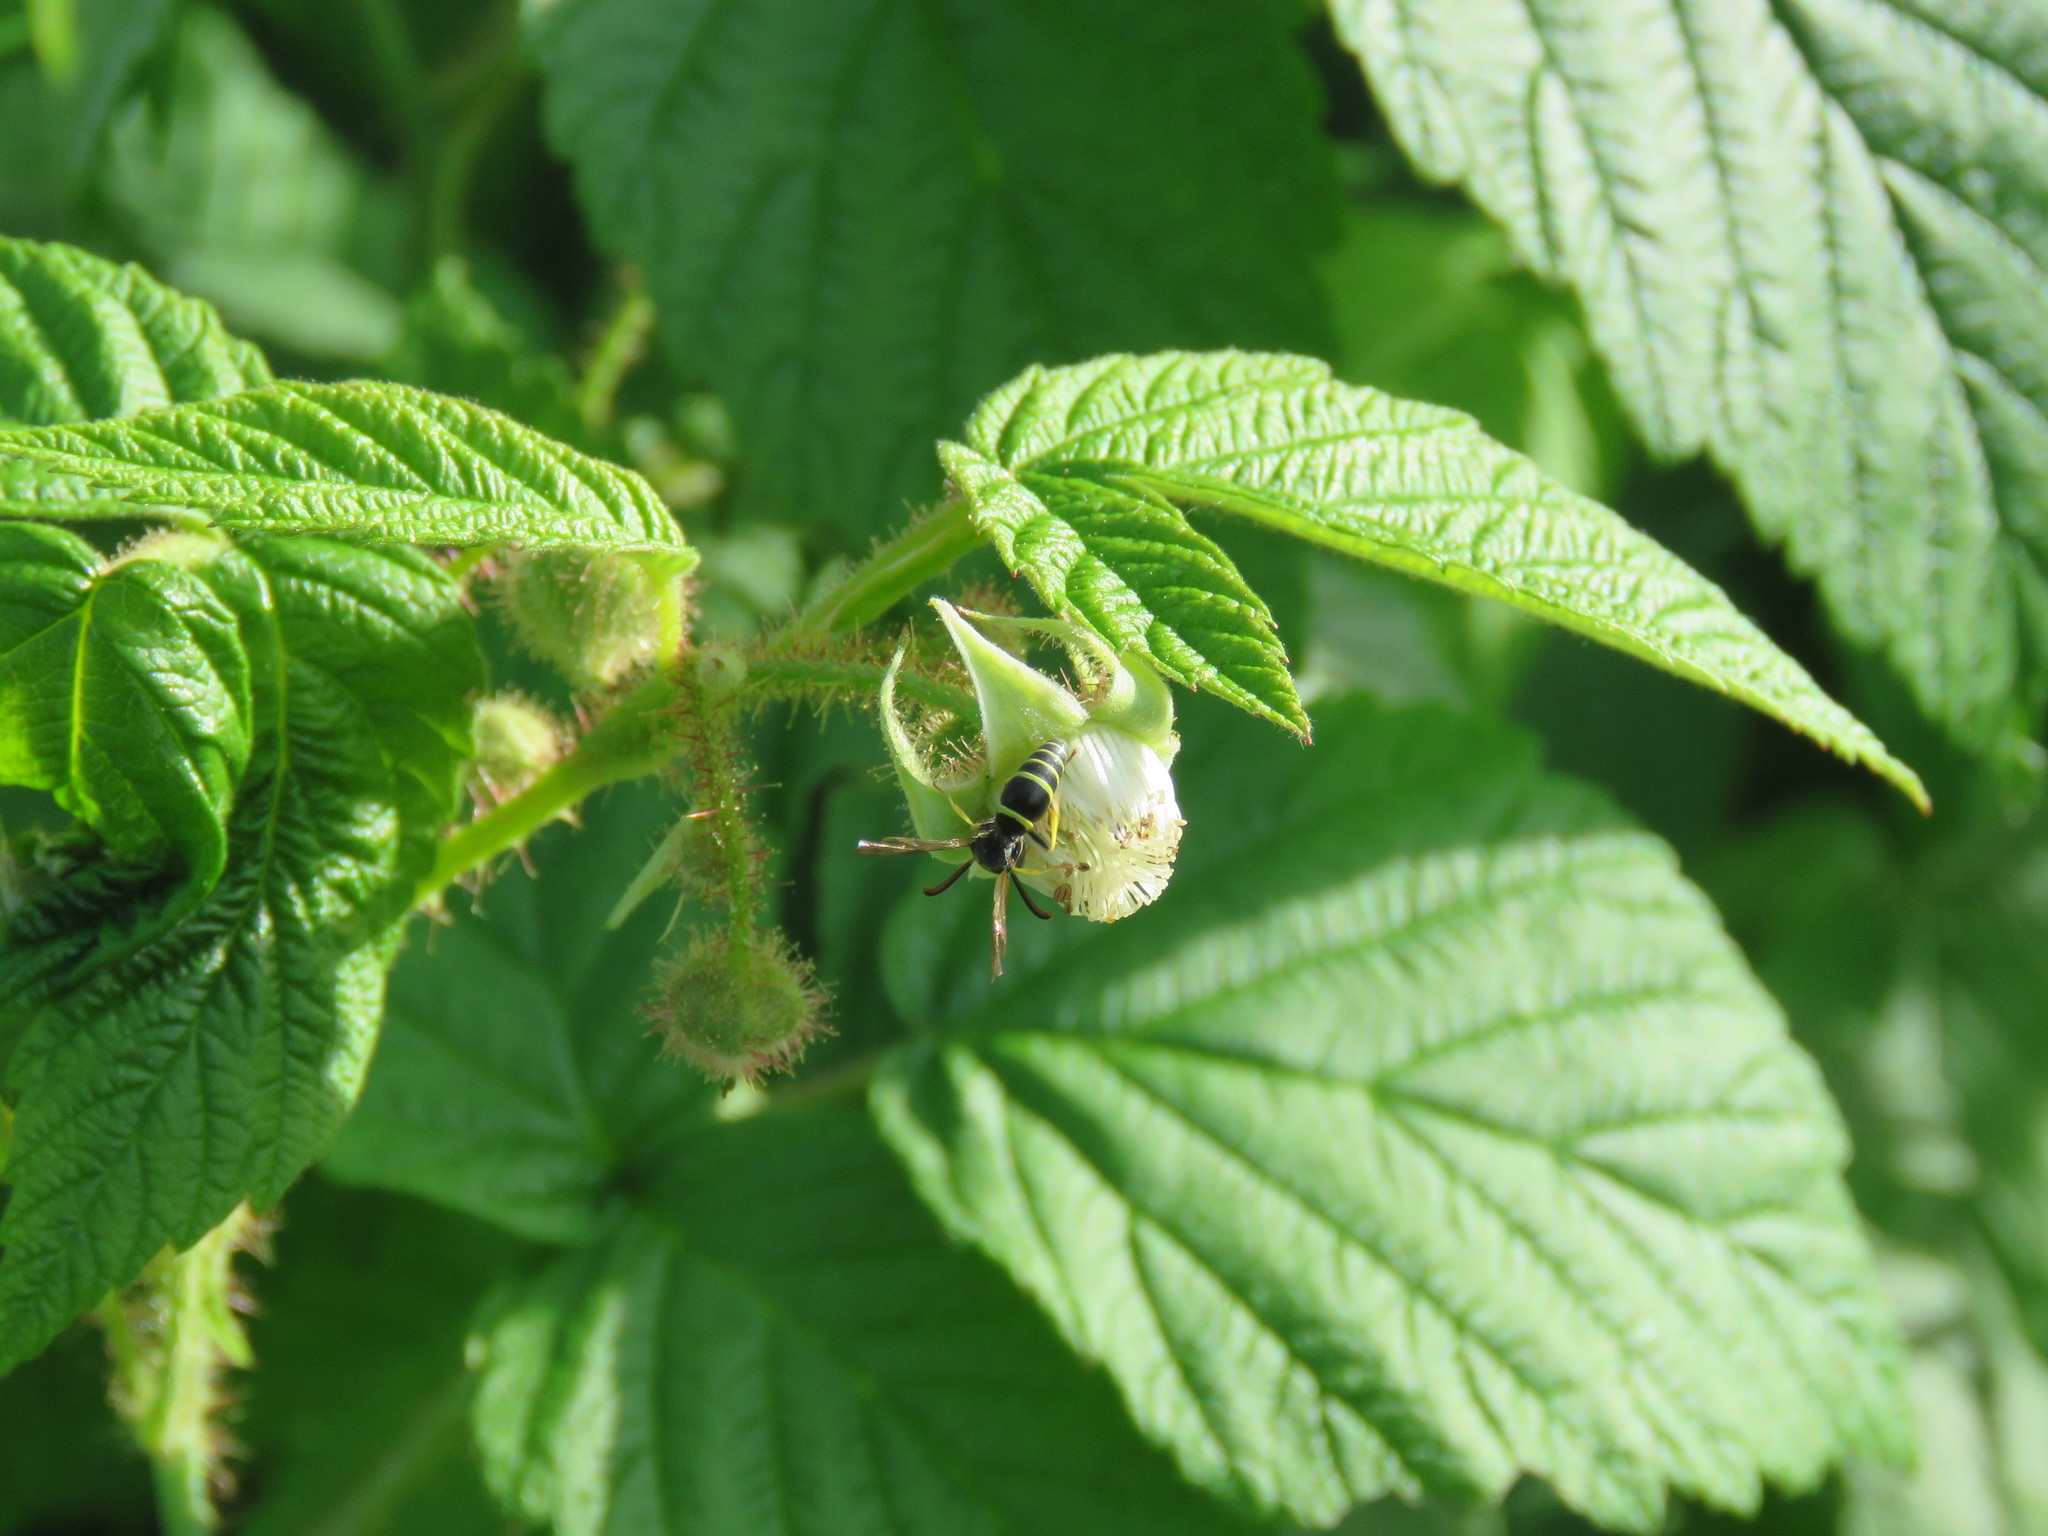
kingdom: Animalia
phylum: Arthropoda
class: Insecta
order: Hymenoptera
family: Vespidae
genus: Ancistrocerus
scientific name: Ancistrocerus catskill
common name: Vespid wasp
